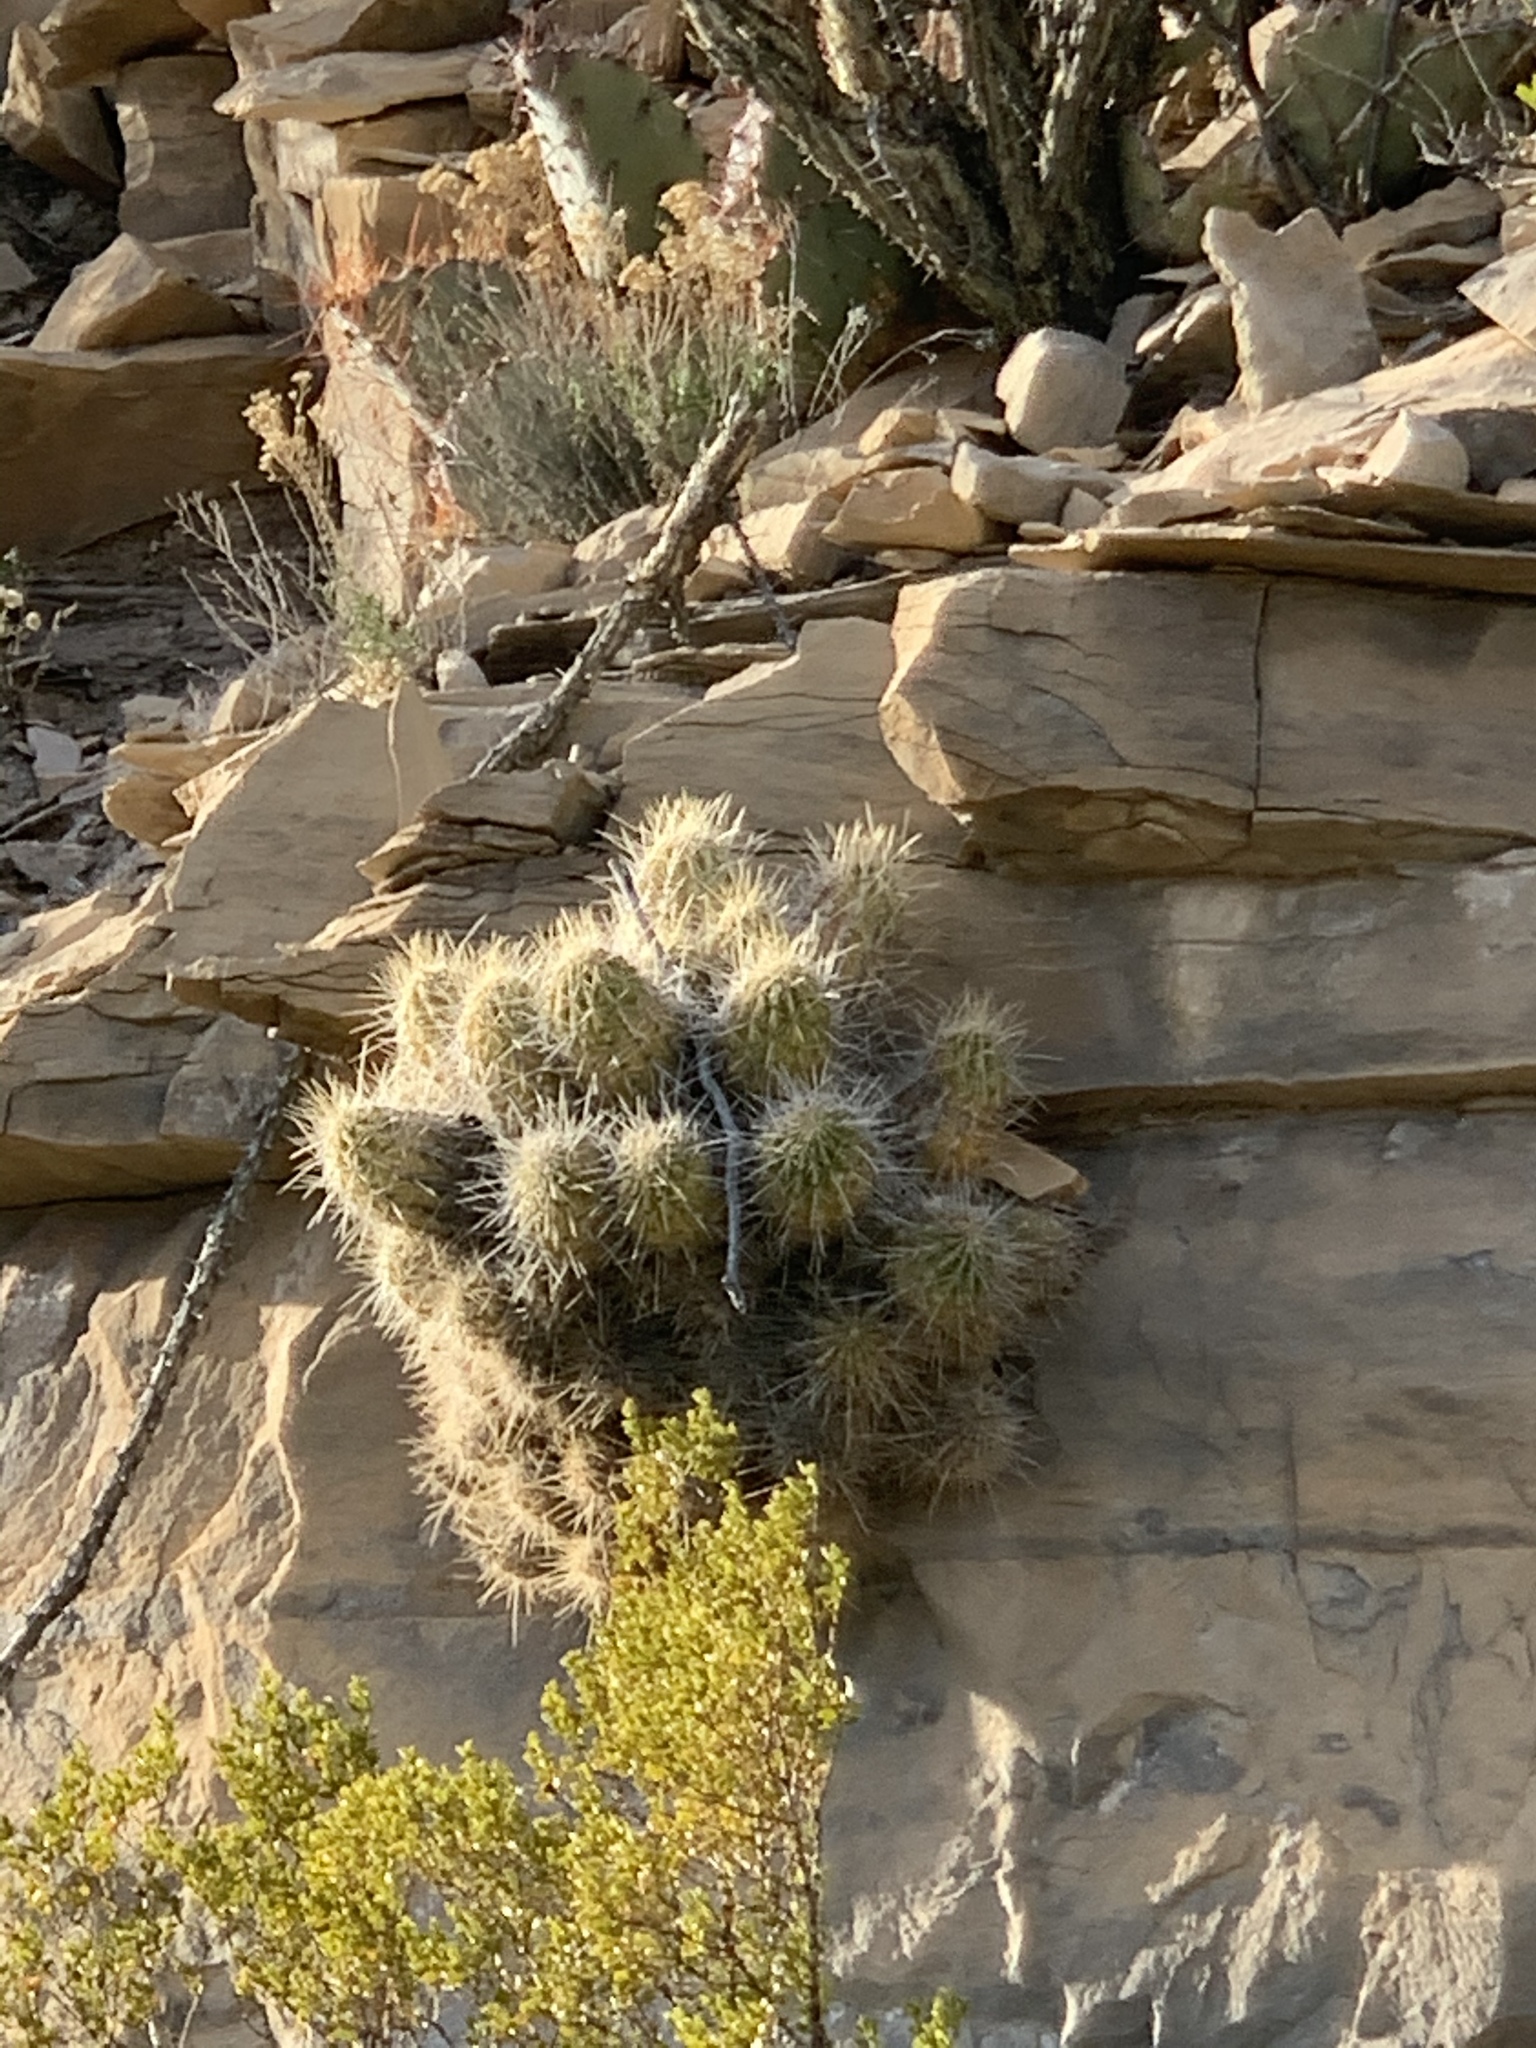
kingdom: Plantae
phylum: Tracheophyta
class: Magnoliopsida
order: Caryophyllales
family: Cactaceae
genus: Echinocereus
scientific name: Echinocereus stramineus
